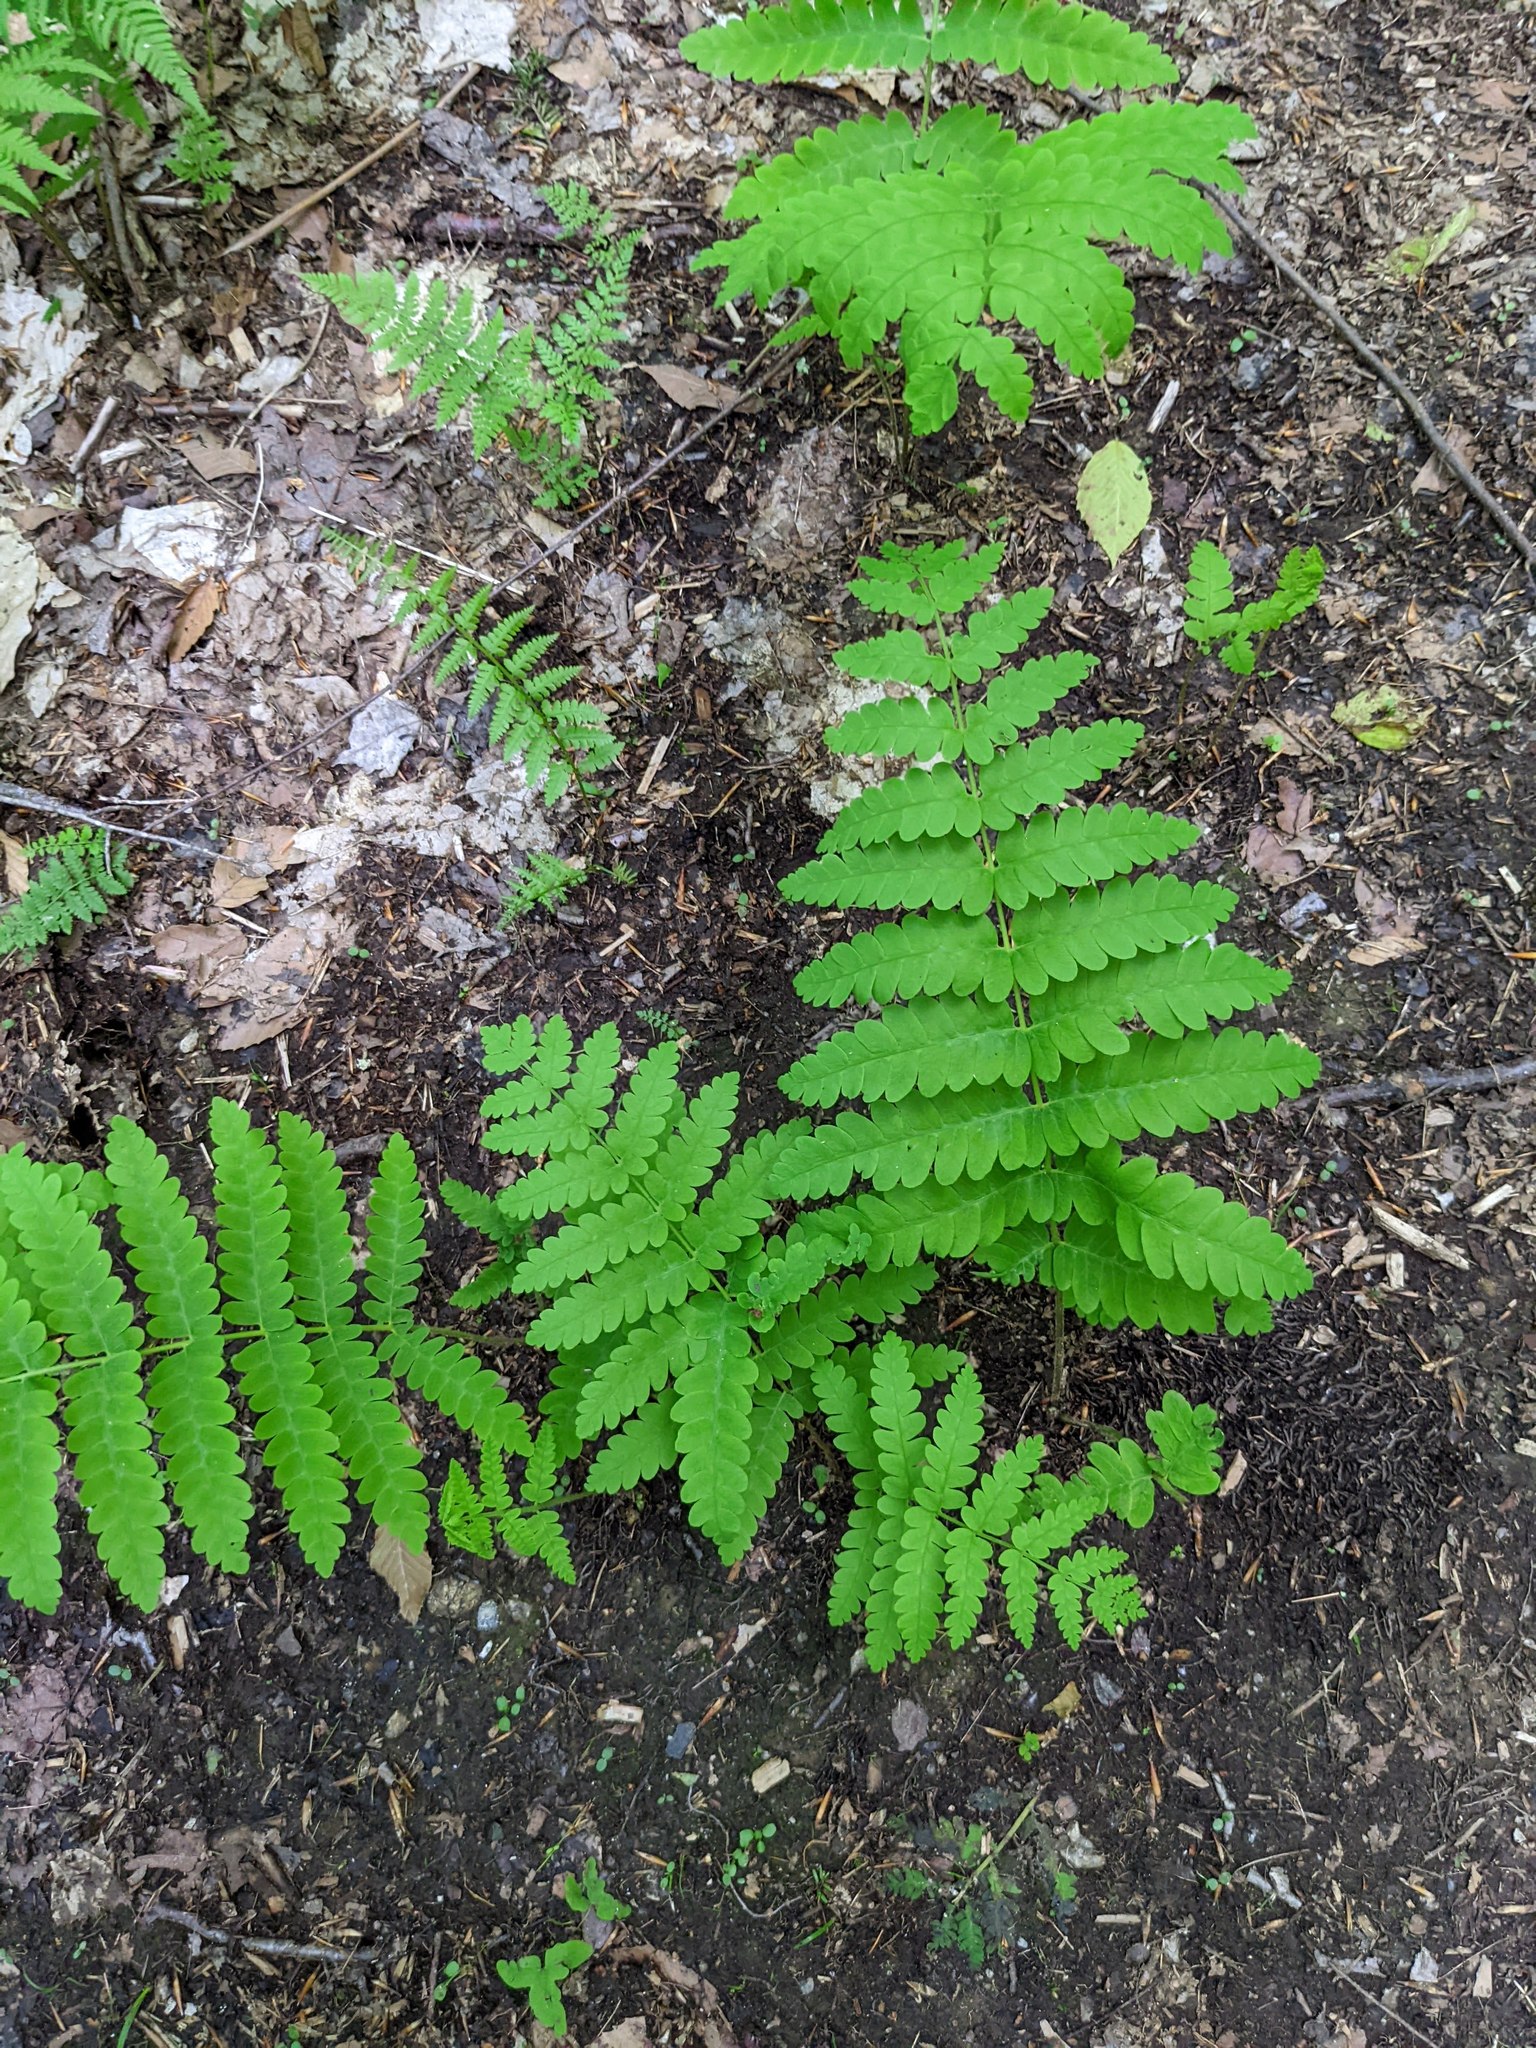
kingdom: Plantae
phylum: Tracheophyta
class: Polypodiopsida
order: Osmundales
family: Osmundaceae
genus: Claytosmunda
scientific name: Claytosmunda claytoniana
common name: Clayton's fern
